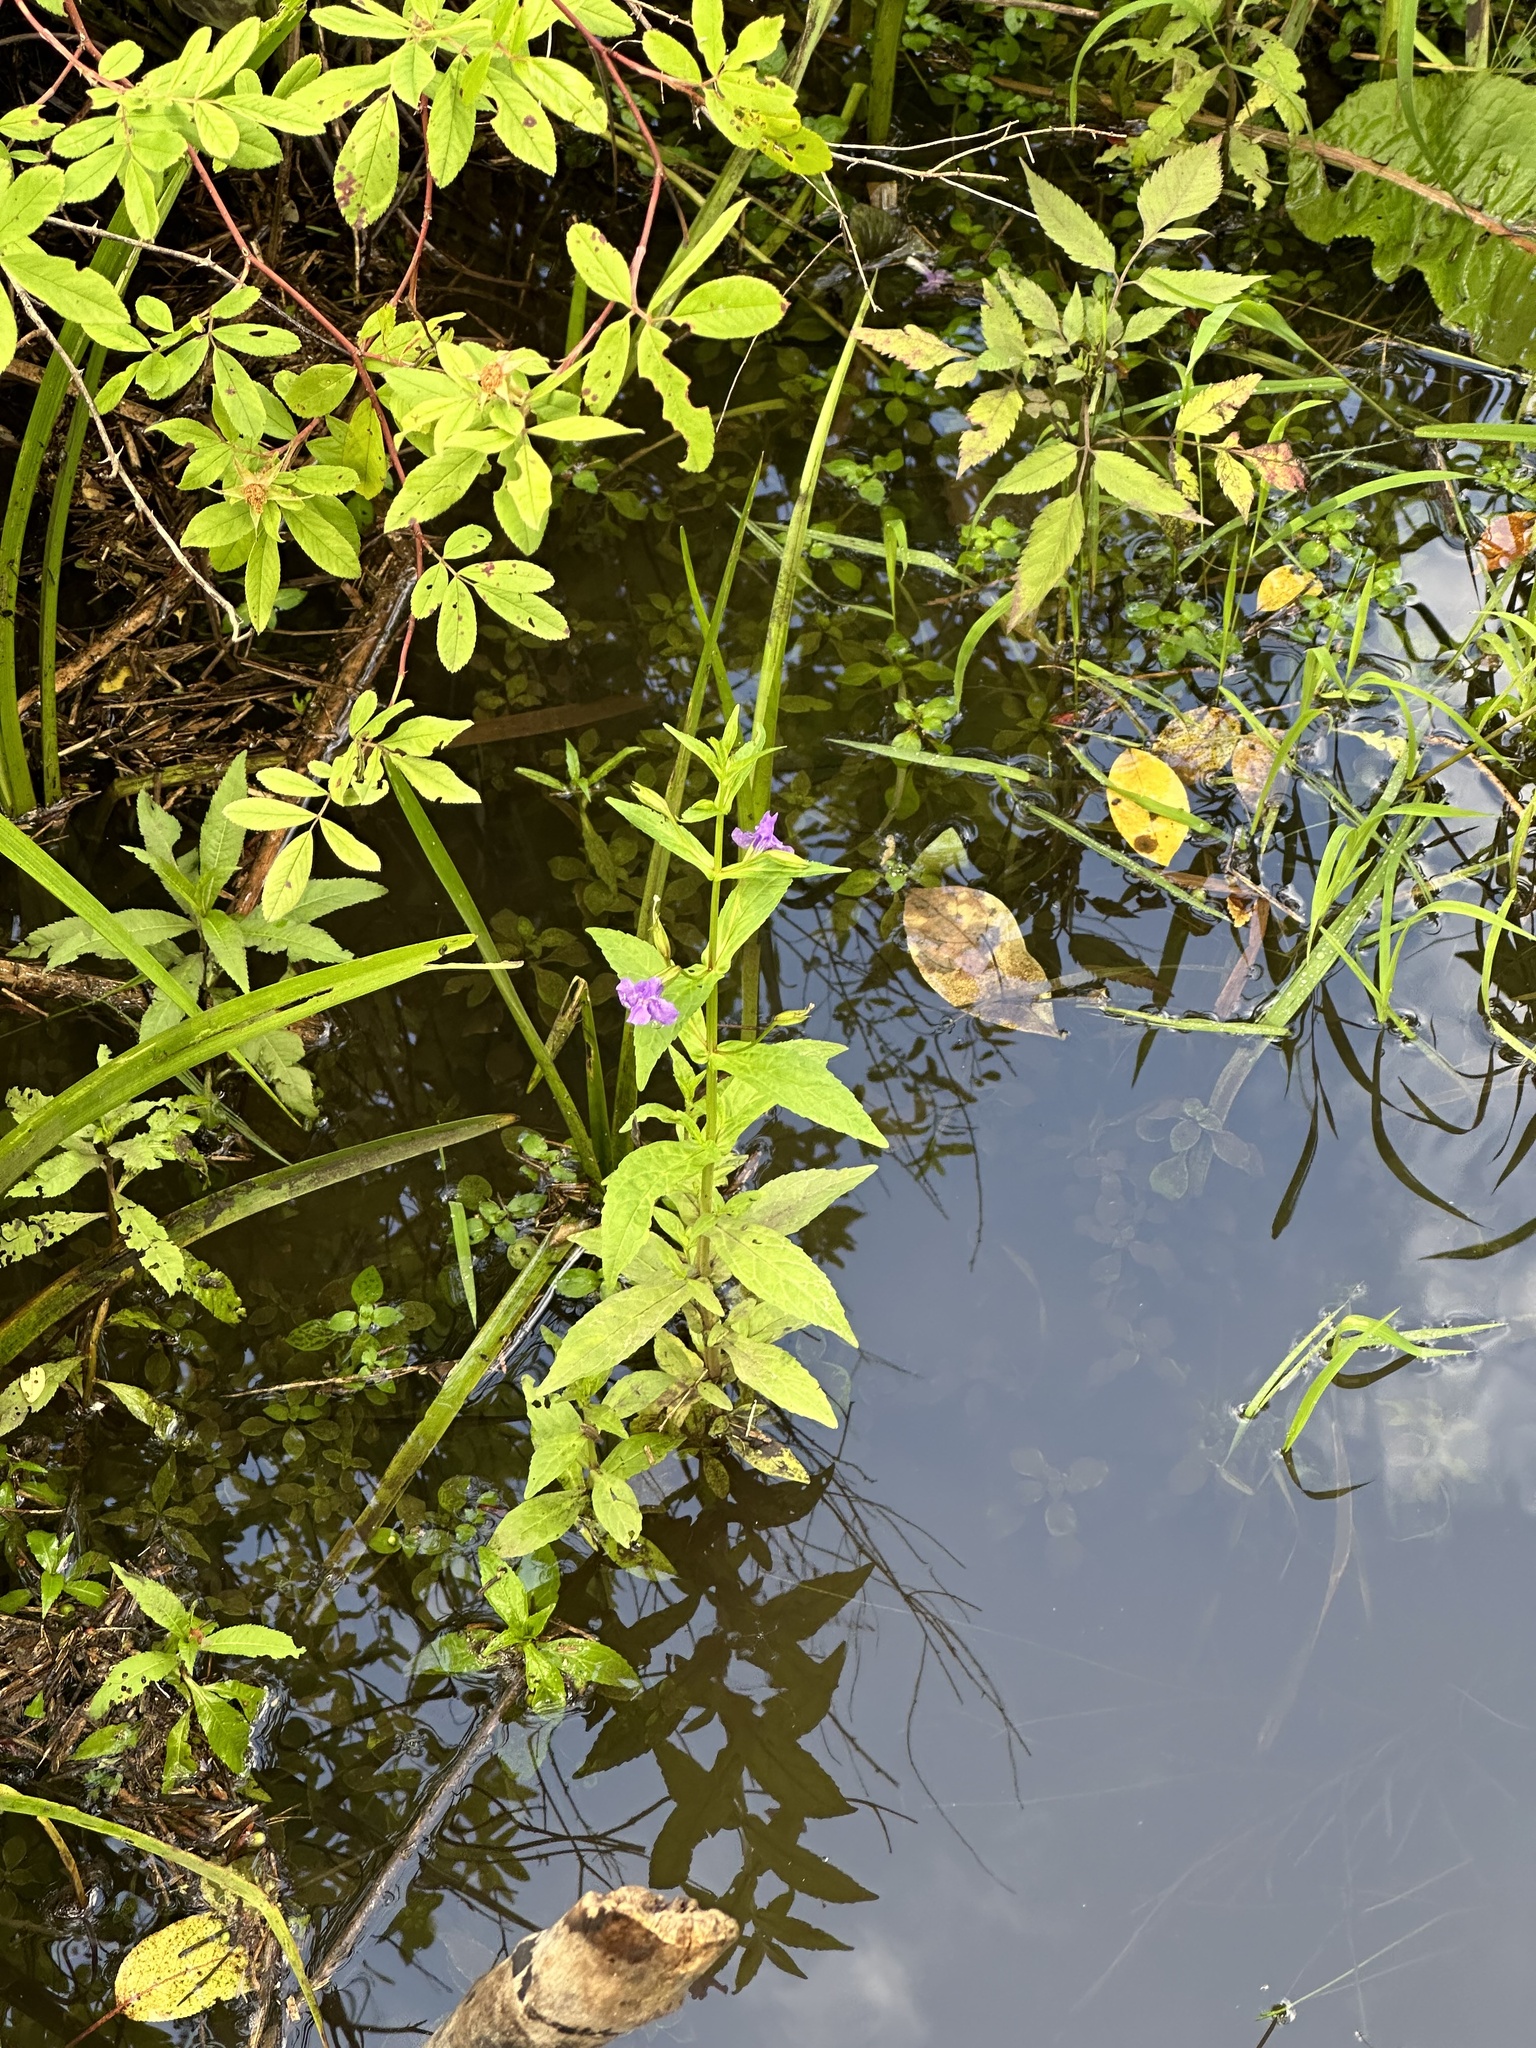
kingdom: Plantae
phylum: Tracheophyta
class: Magnoliopsida
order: Lamiales
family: Phrymaceae
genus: Mimulus
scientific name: Mimulus ringens
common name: Allegheny monkeyflower
